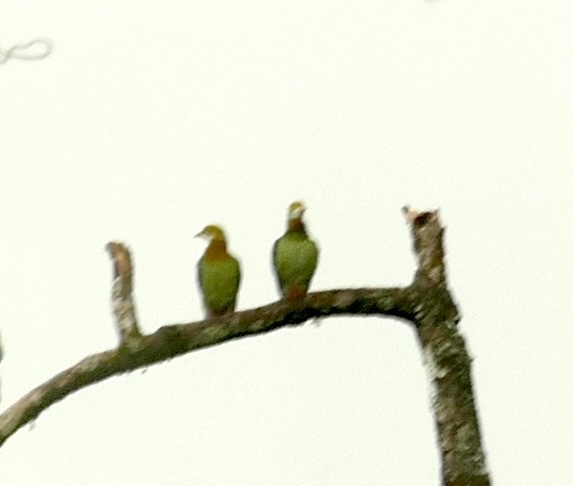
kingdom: Animalia
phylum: Chordata
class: Aves
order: Columbiformes
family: Columbidae
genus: Ptilinopus
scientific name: Ptilinopus perlatus
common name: Pink-spotted fruit dove
